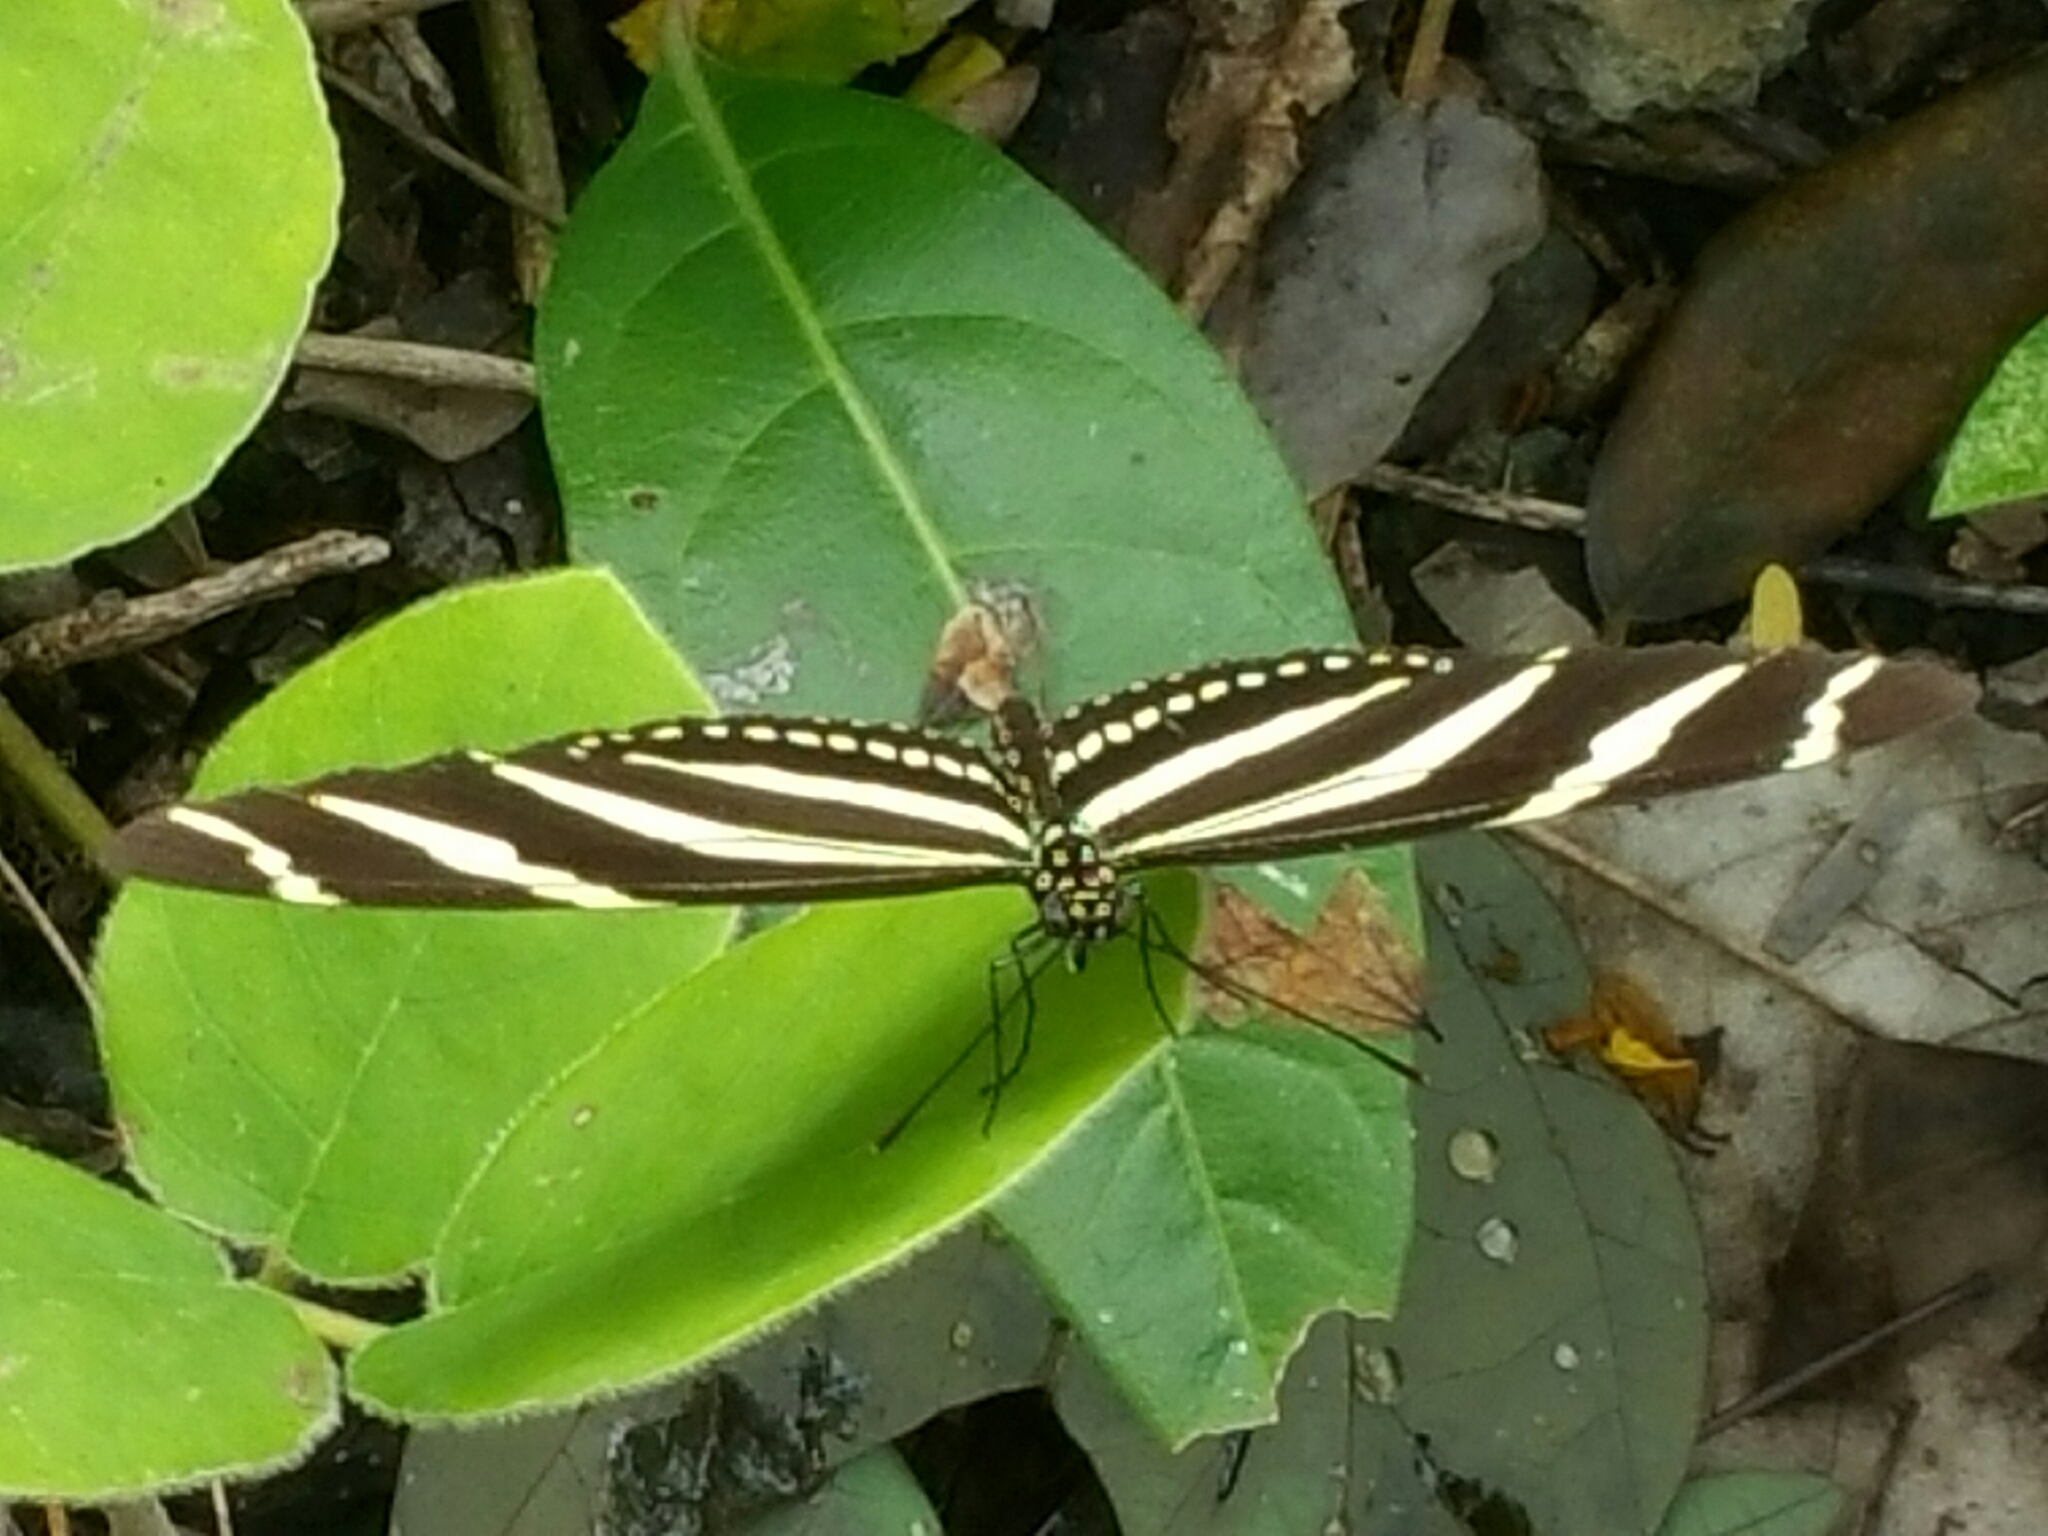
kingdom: Animalia
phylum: Arthropoda
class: Insecta
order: Lepidoptera
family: Nymphalidae
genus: Heliconius
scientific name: Heliconius charithonia
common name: Zebra long wing
